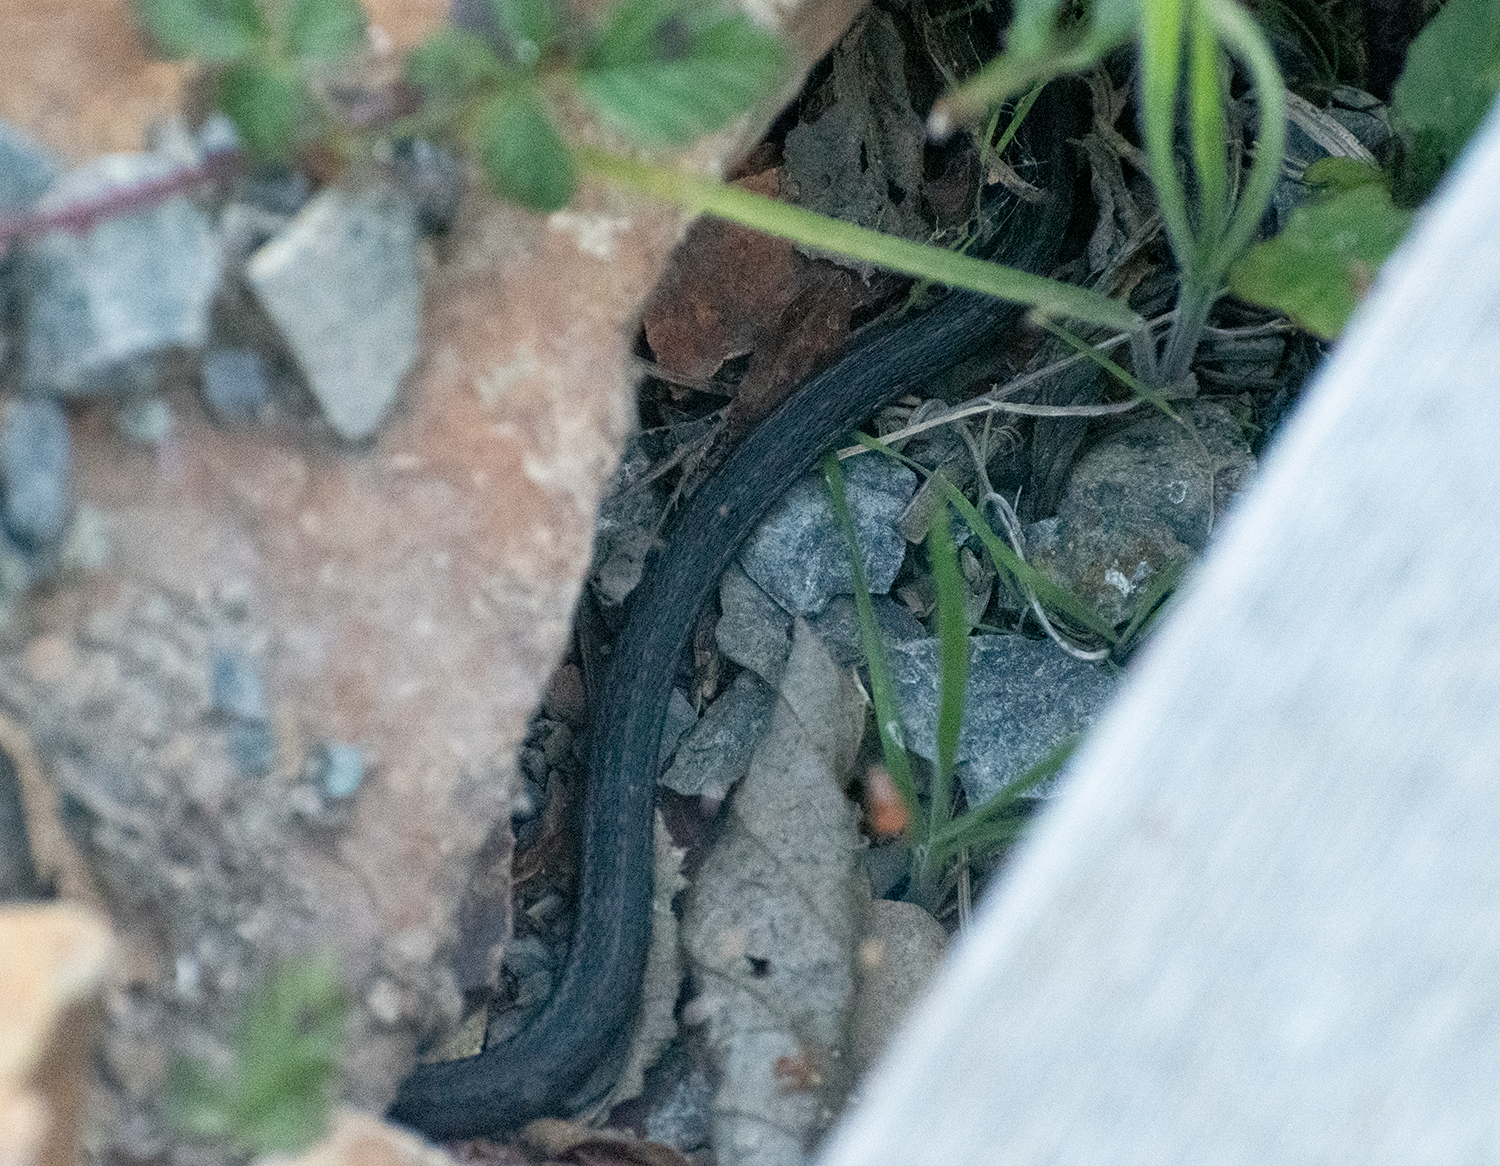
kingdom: Animalia
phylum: Chordata
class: Squamata
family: Colubridae
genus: Thamnophis
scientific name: Thamnophis elegans
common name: Western terrestrial garter snake
